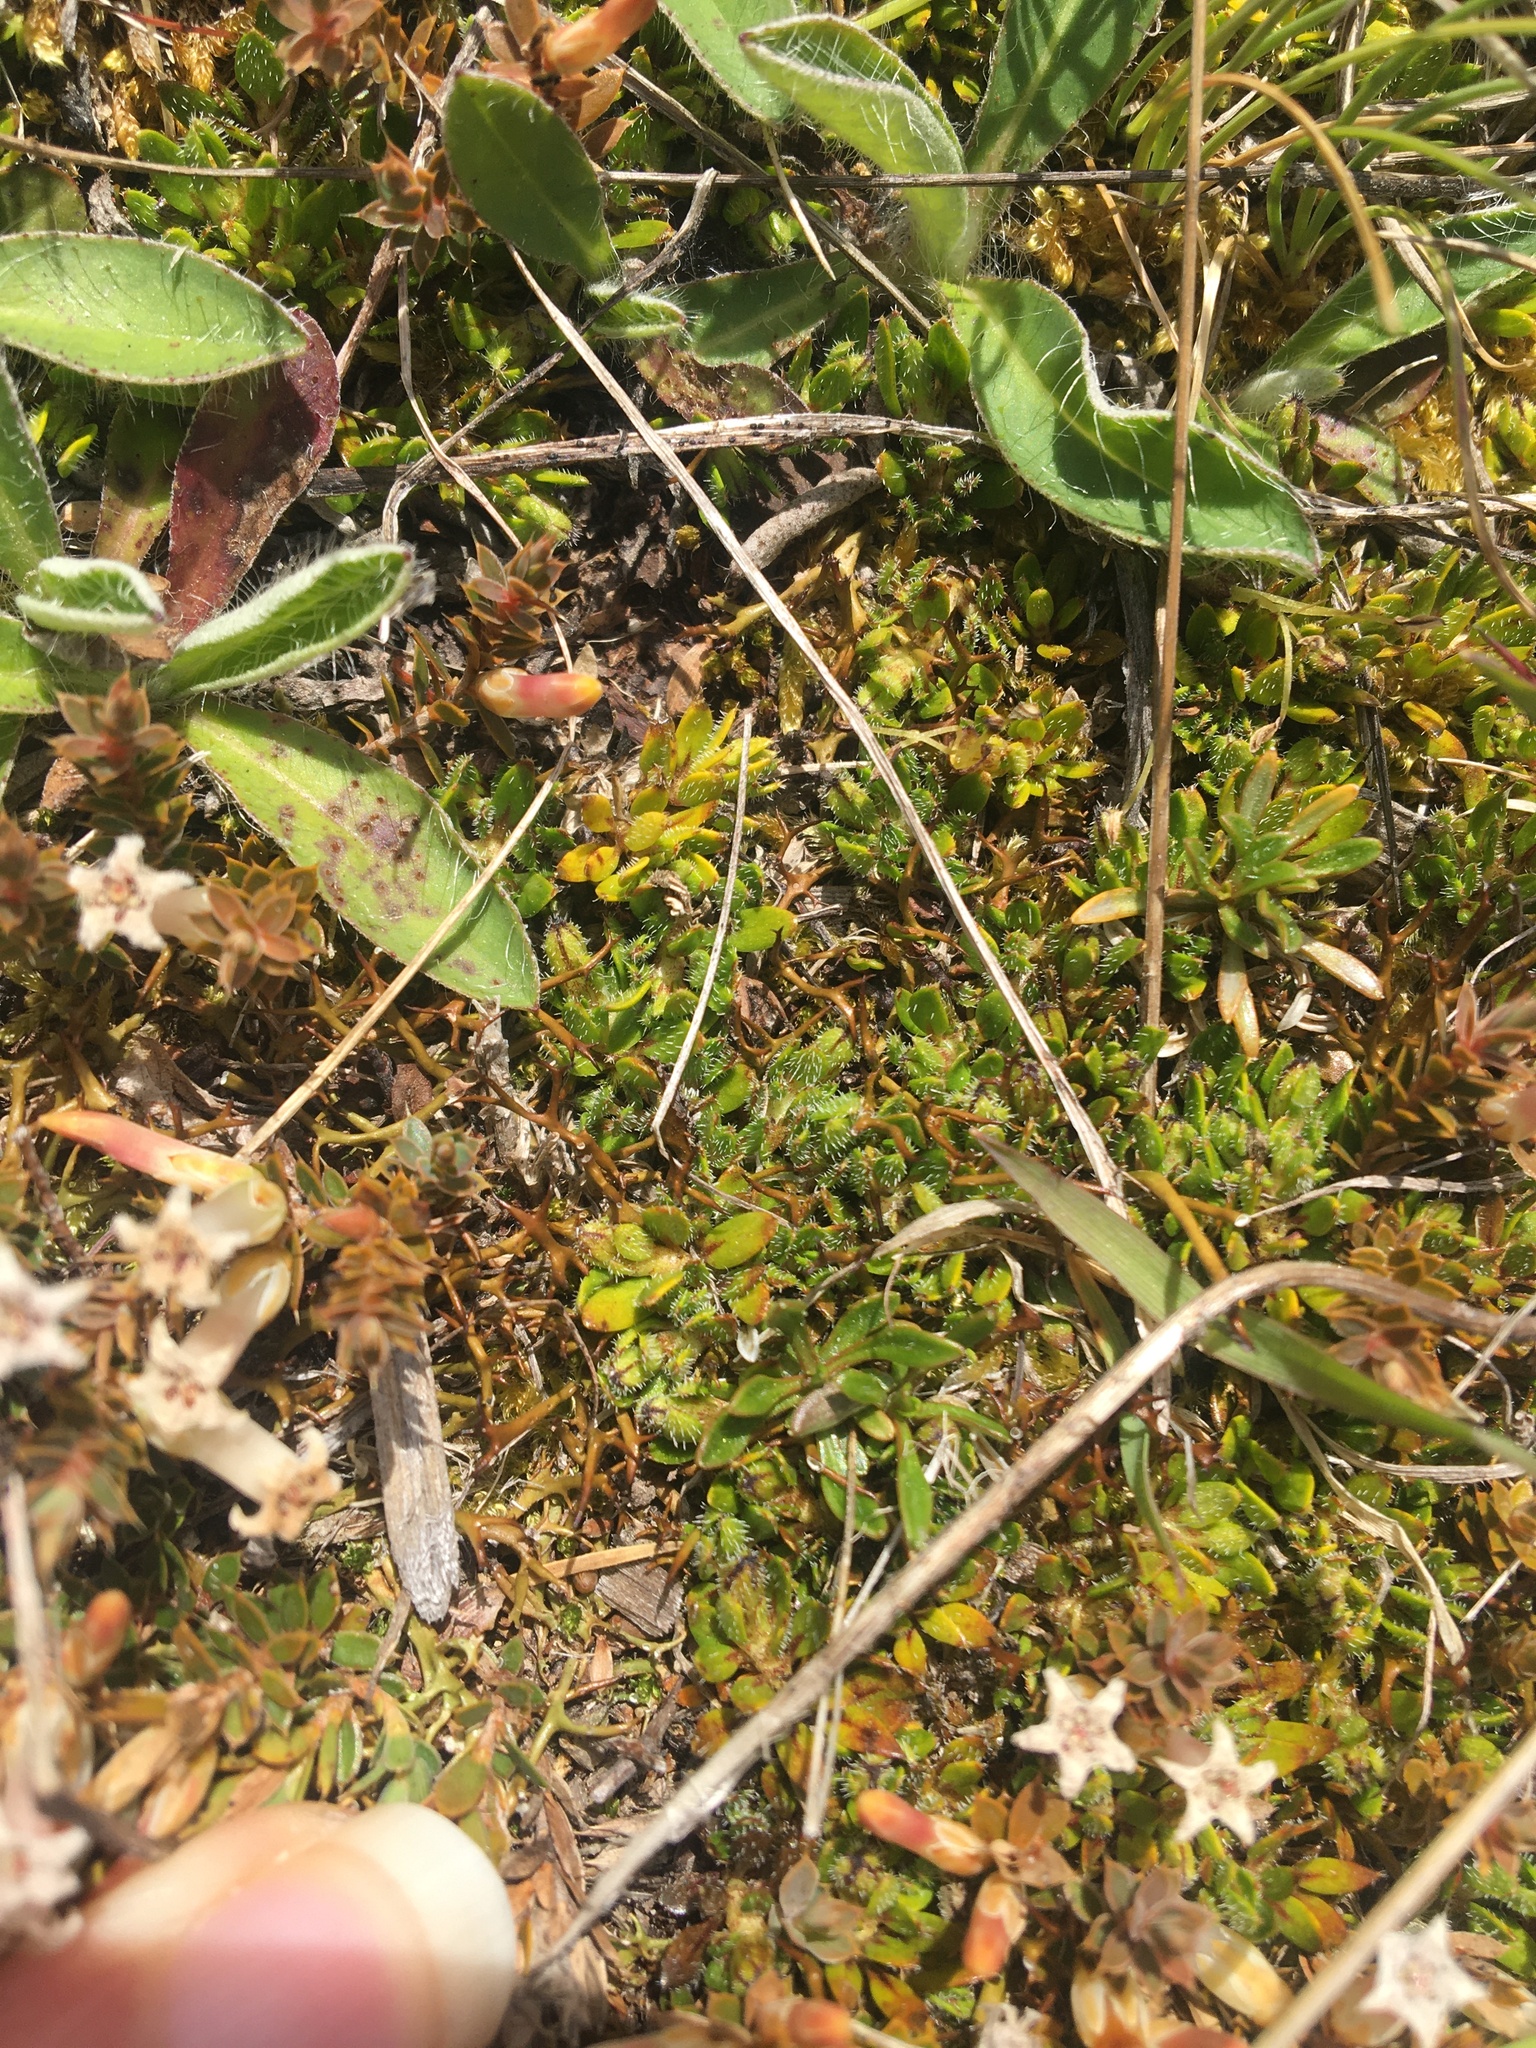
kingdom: Plantae
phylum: Tracheophyta
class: Magnoliopsida
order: Gentianales
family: Rubiaceae
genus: Coprosma
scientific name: Coprosma atropurpurea
